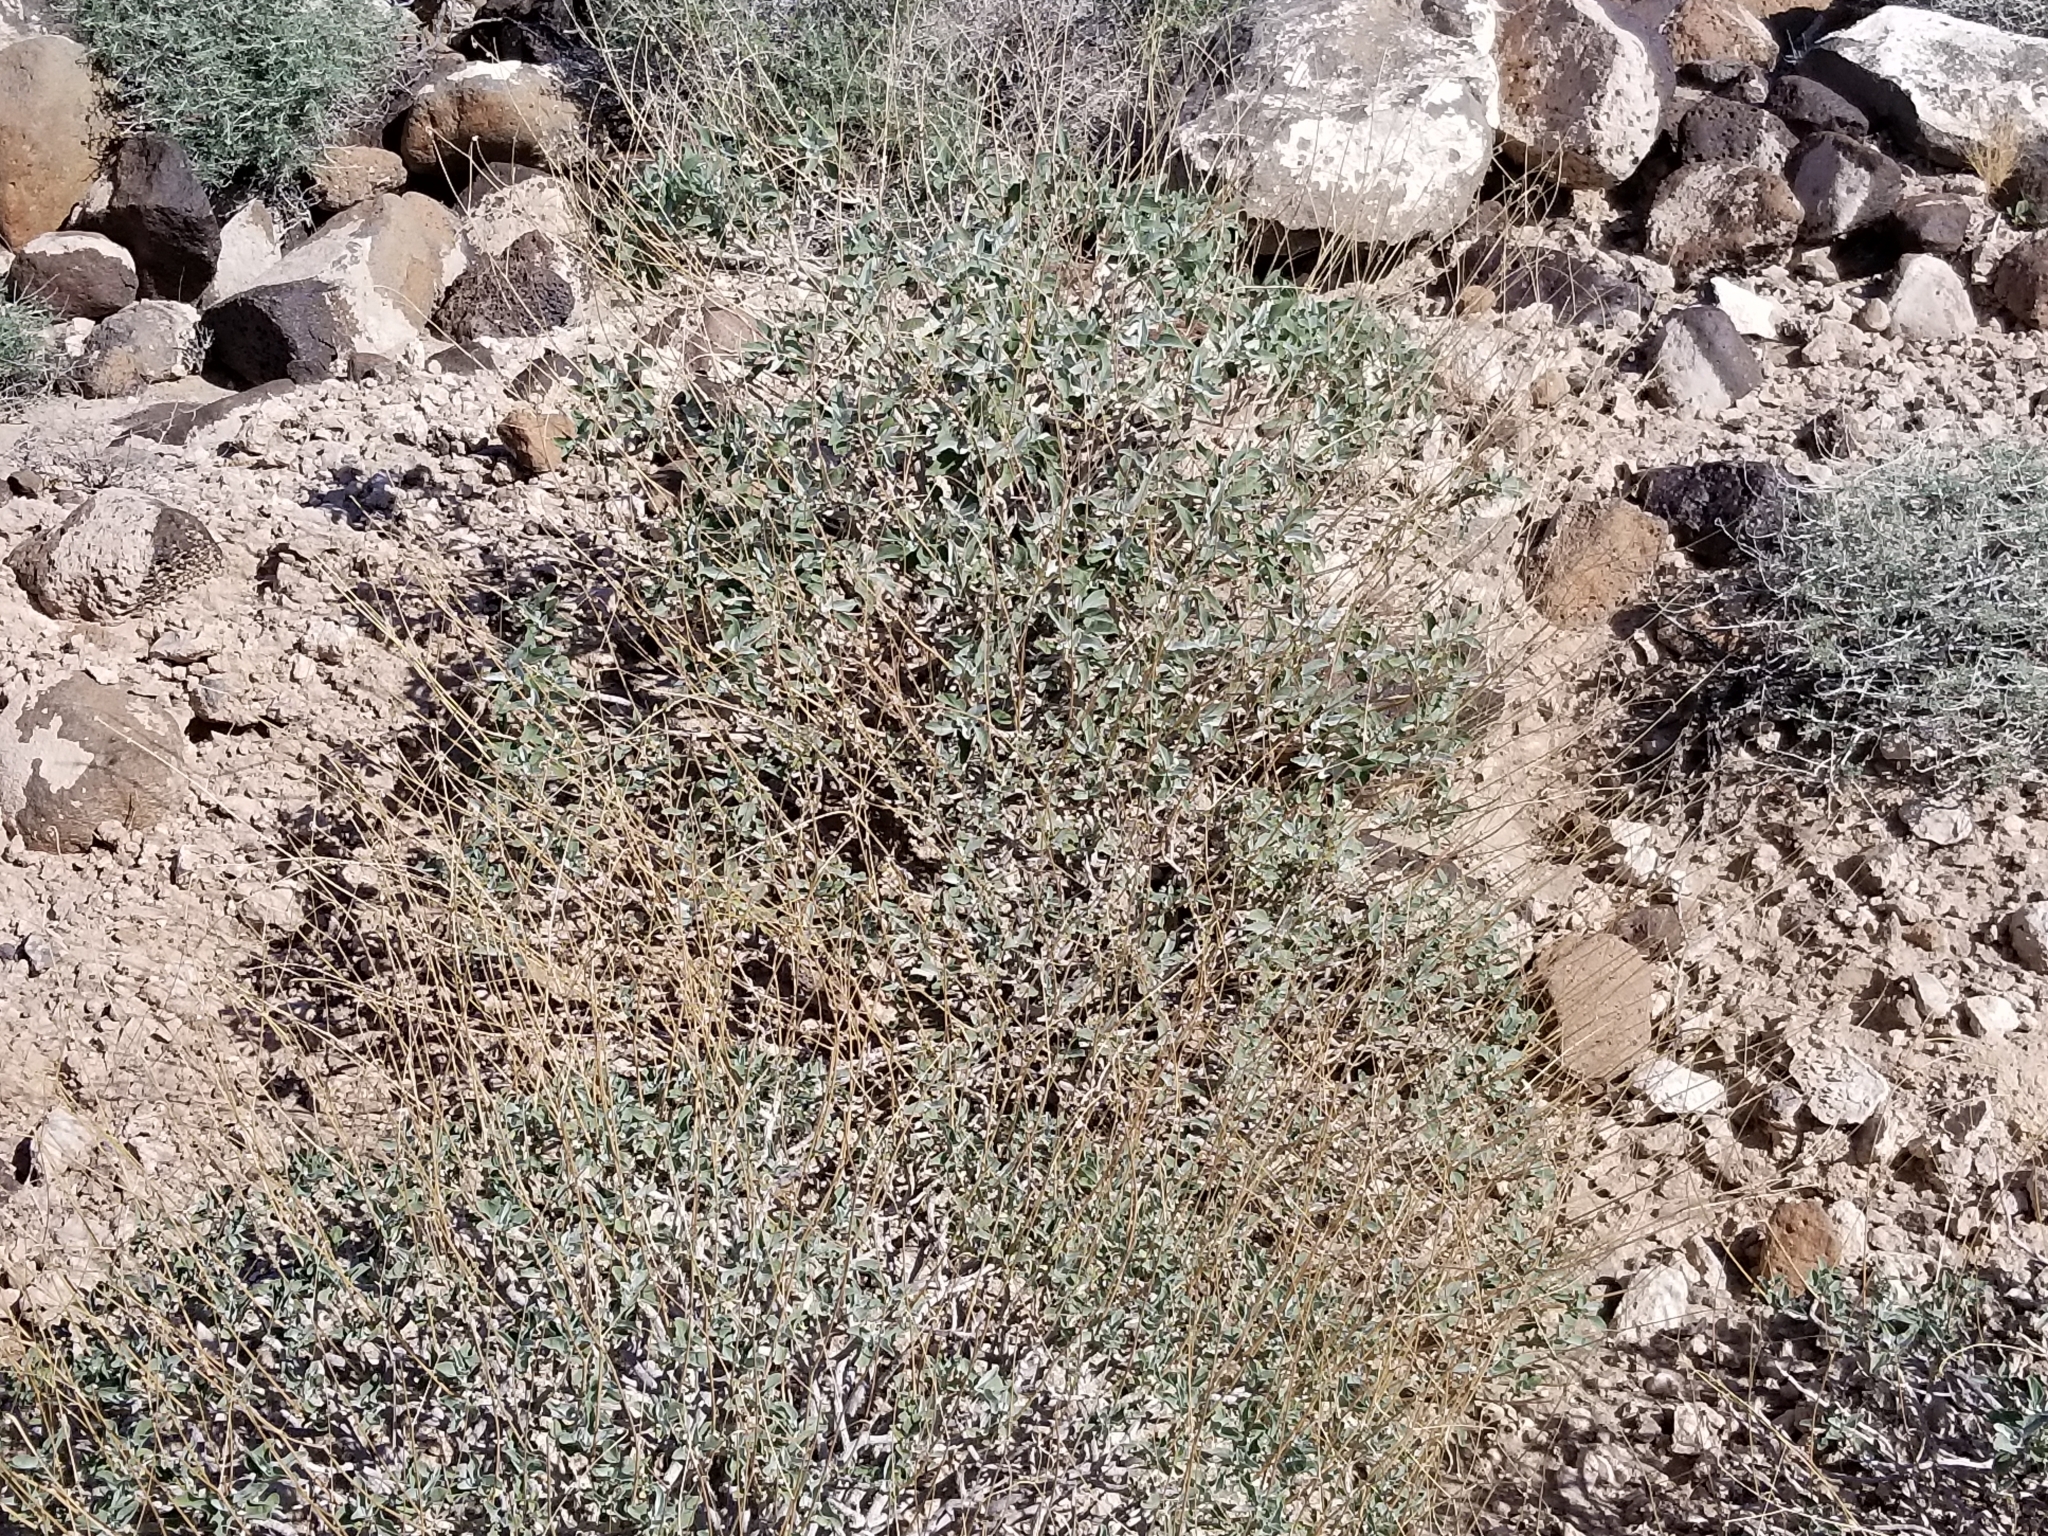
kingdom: Plantae
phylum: Tracheophyta
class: Magnoliopsida
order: Asterales
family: Asteraceae
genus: Encelia
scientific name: Encelia farinosa
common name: Brittlebush
